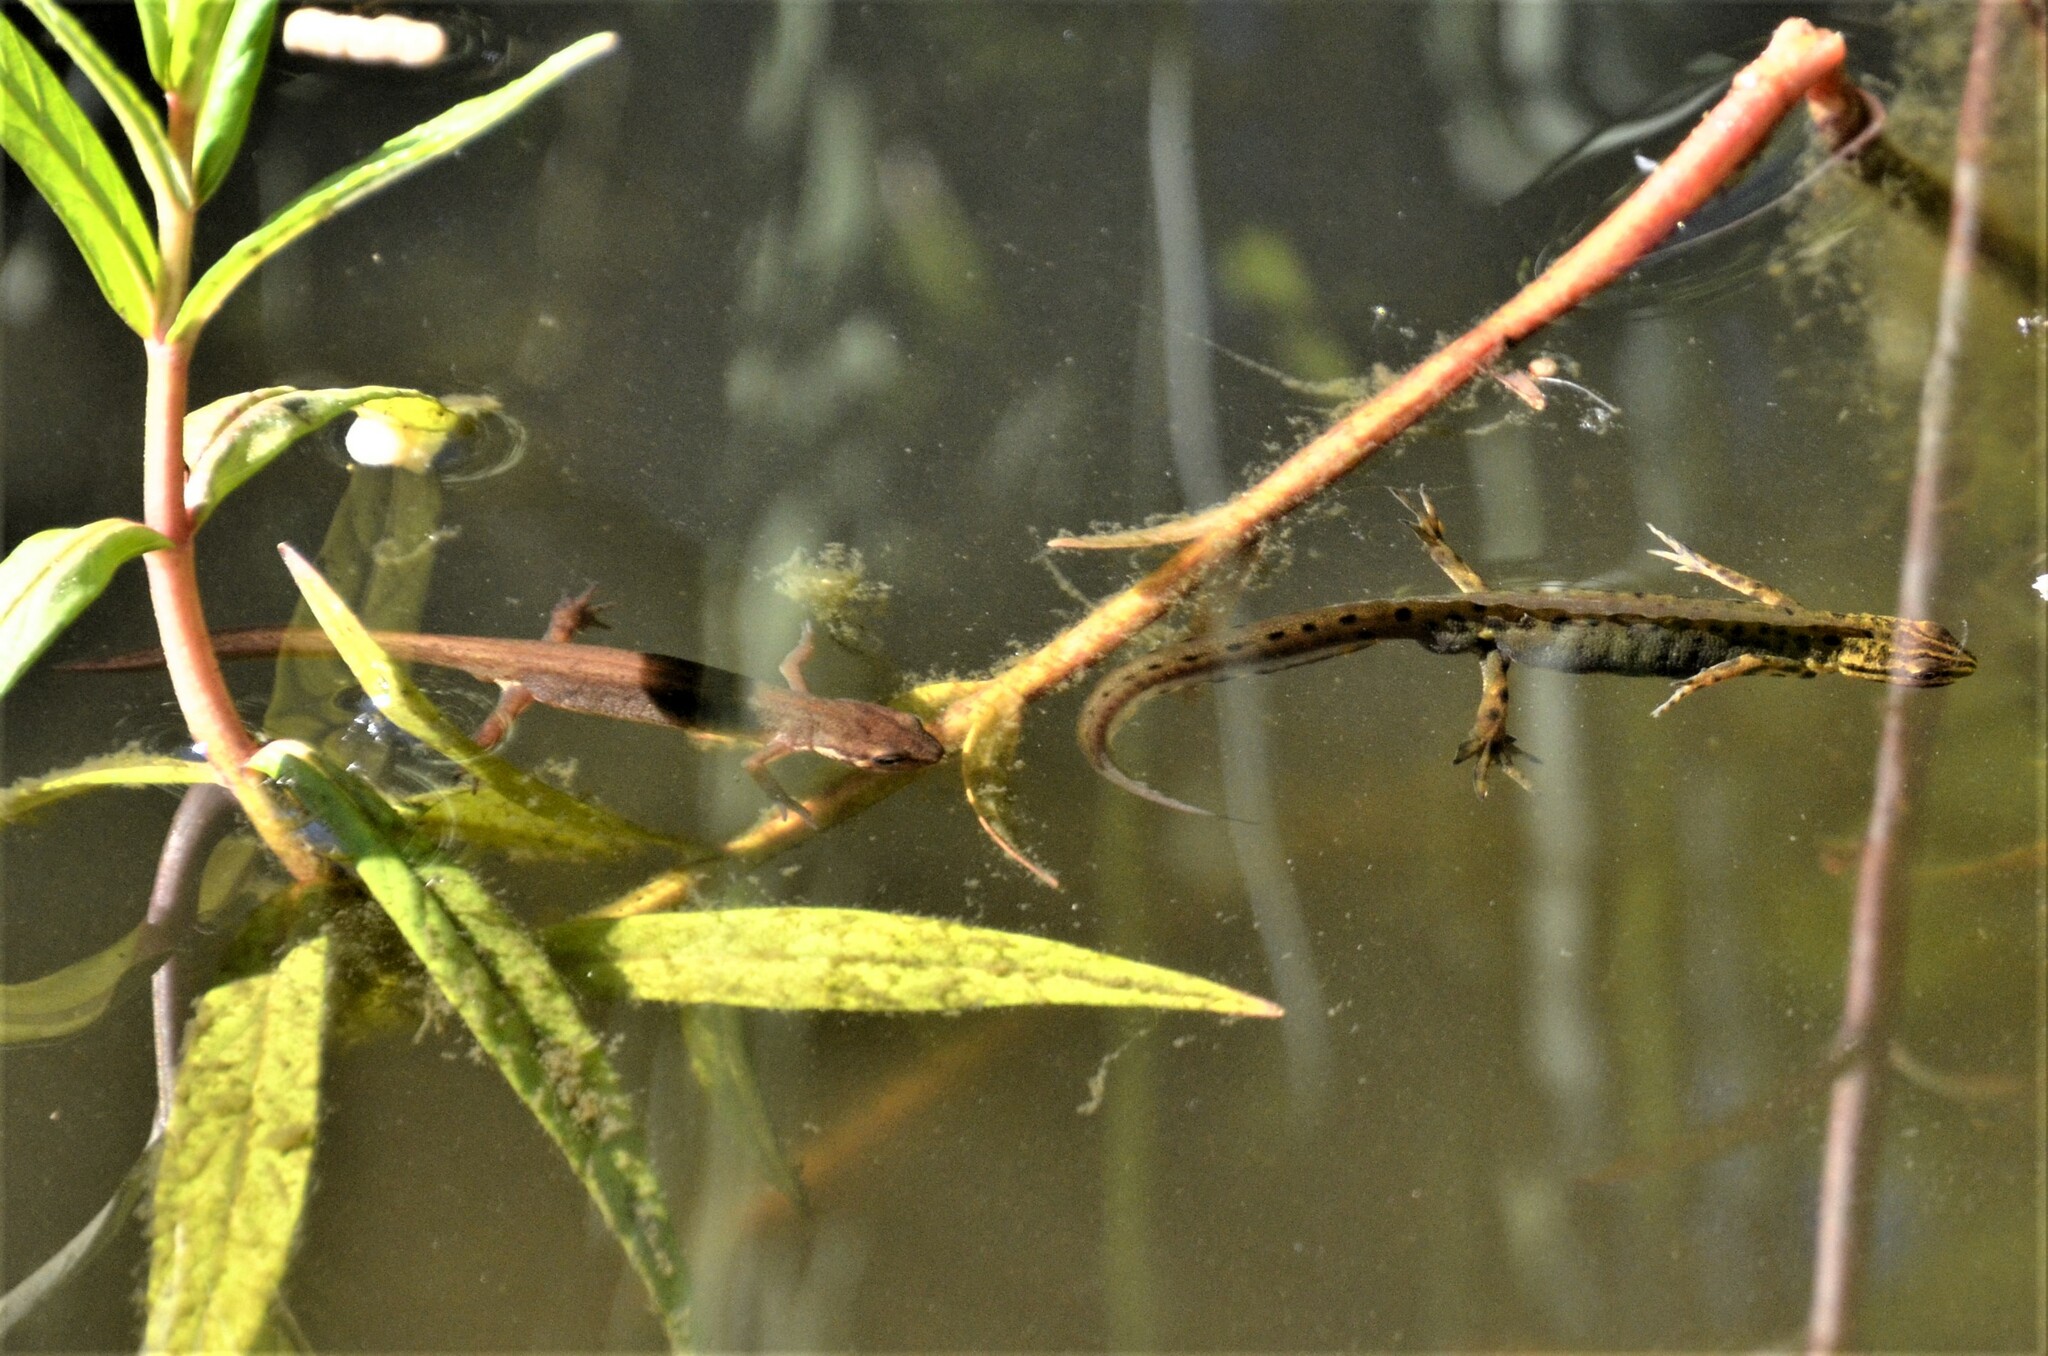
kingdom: Animalia
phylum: Chordata
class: Amphibia
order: Caudata
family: Salamandridae
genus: Lissotriton
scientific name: Lissotriton vulgaris
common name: Smooth newt
